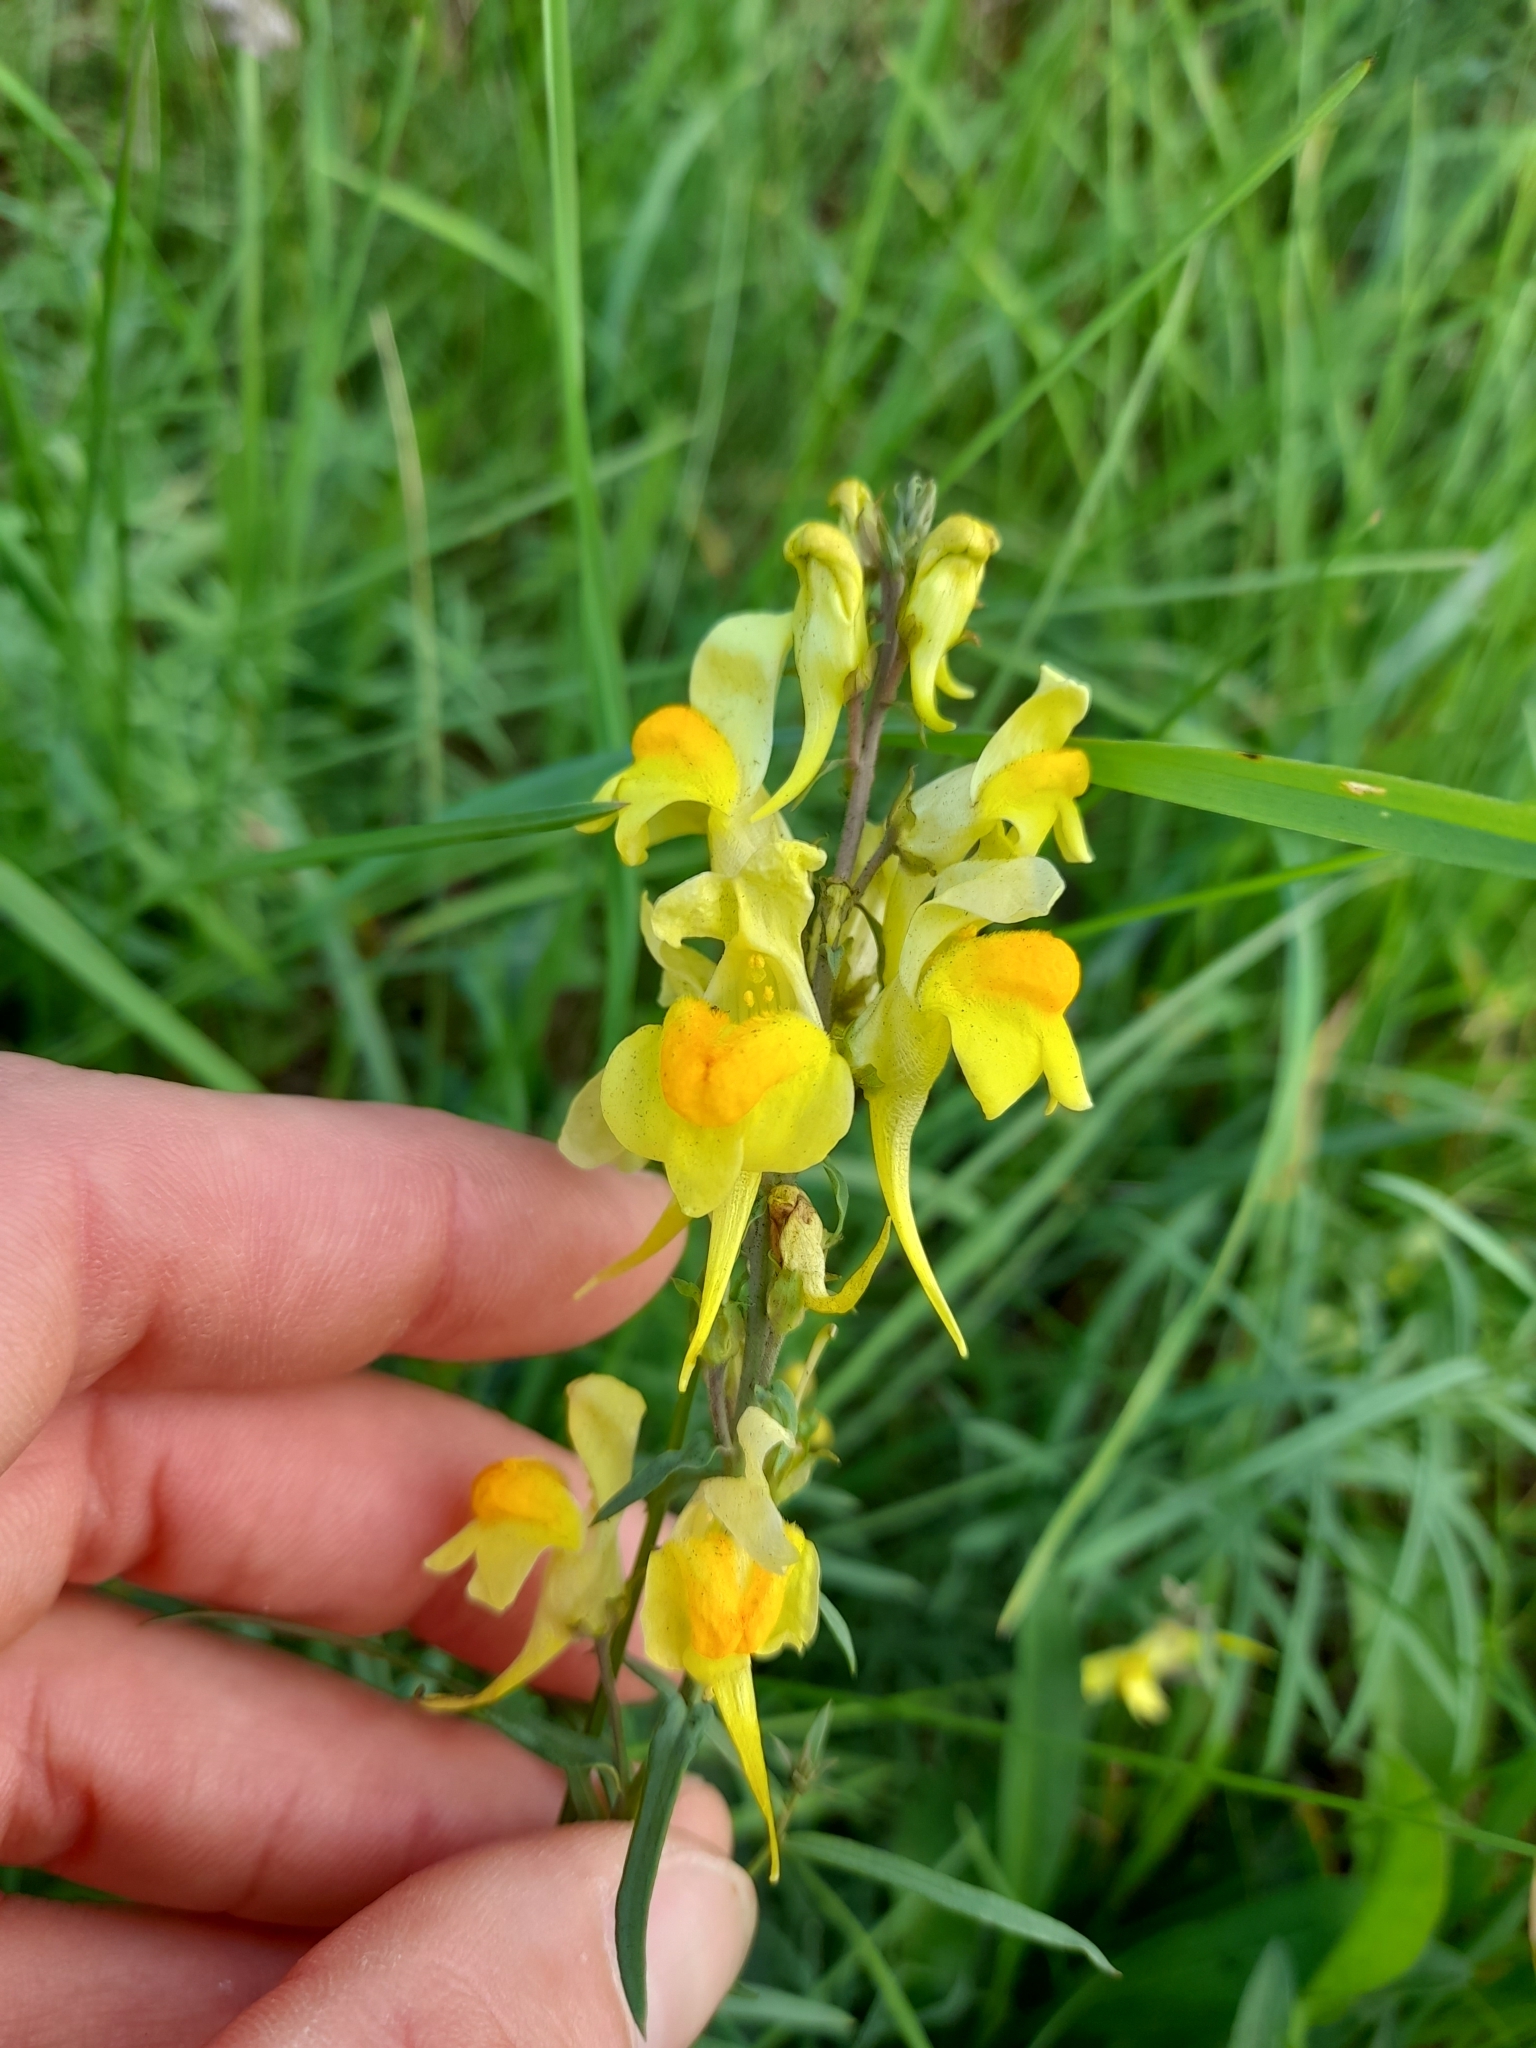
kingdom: Plantae
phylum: Tracheophyta
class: Magnoliopsida
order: Lamiales
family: Plantaginaceae
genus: Linaria
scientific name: Linaria vulgaris
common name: Butter and eggs
